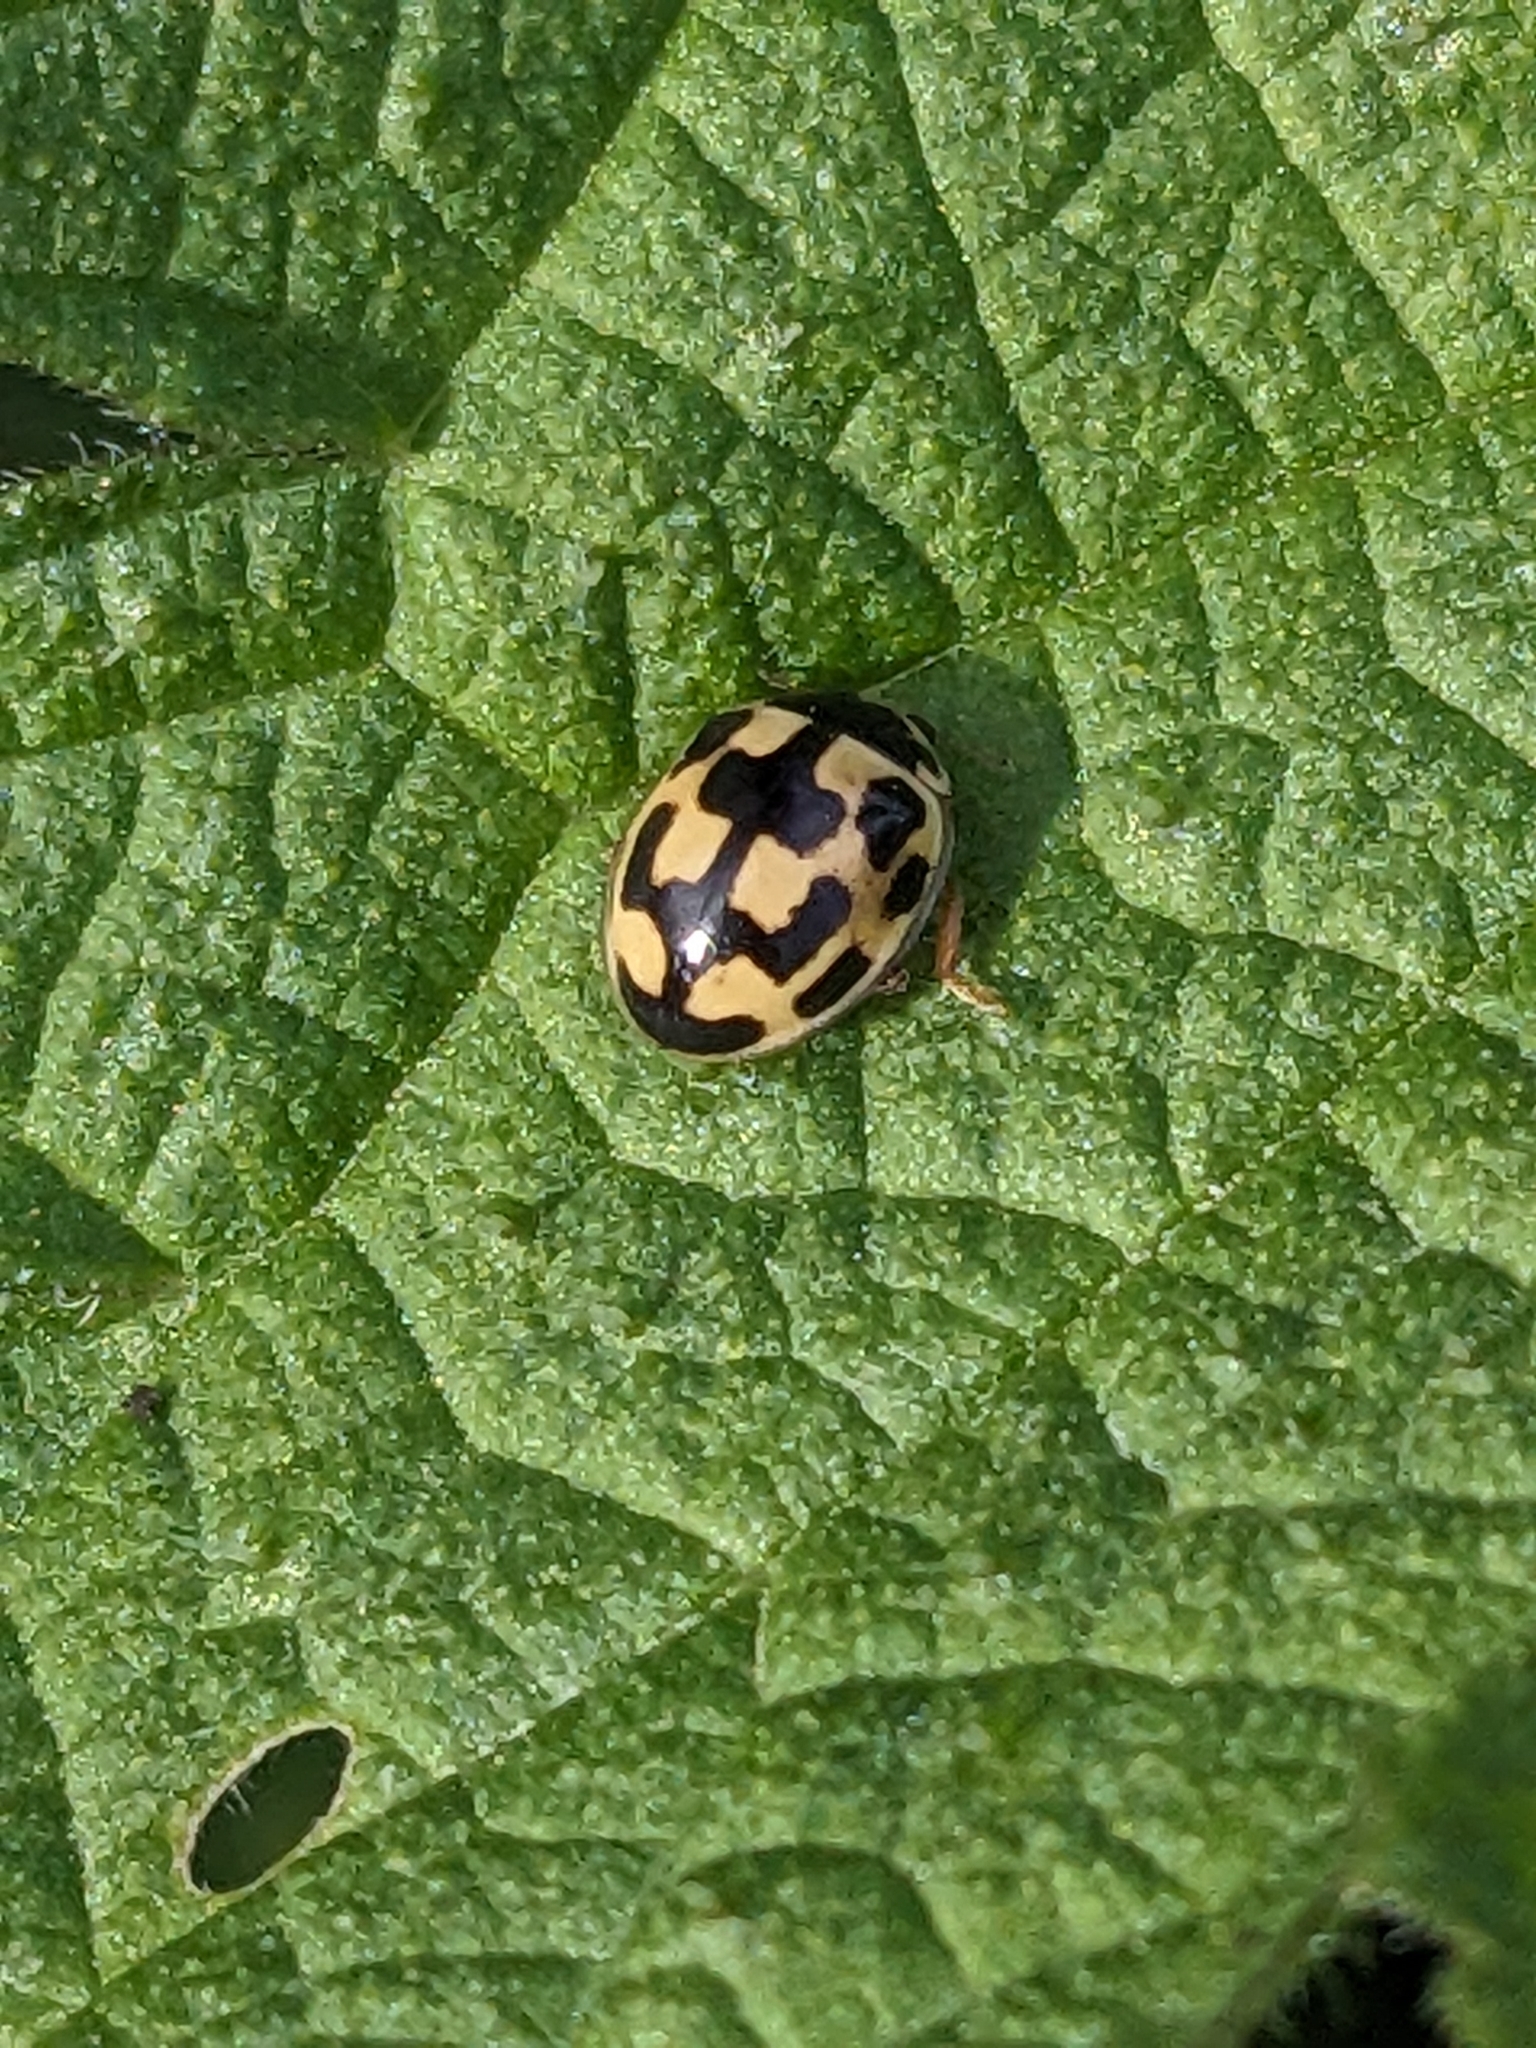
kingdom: Animalia
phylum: Arthropoda
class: Insecta
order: Coleoptera
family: Coccinellidae
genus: Propylaea
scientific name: Propylaea quatuordecimpunctata
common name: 14-spotted ladybird beetle
